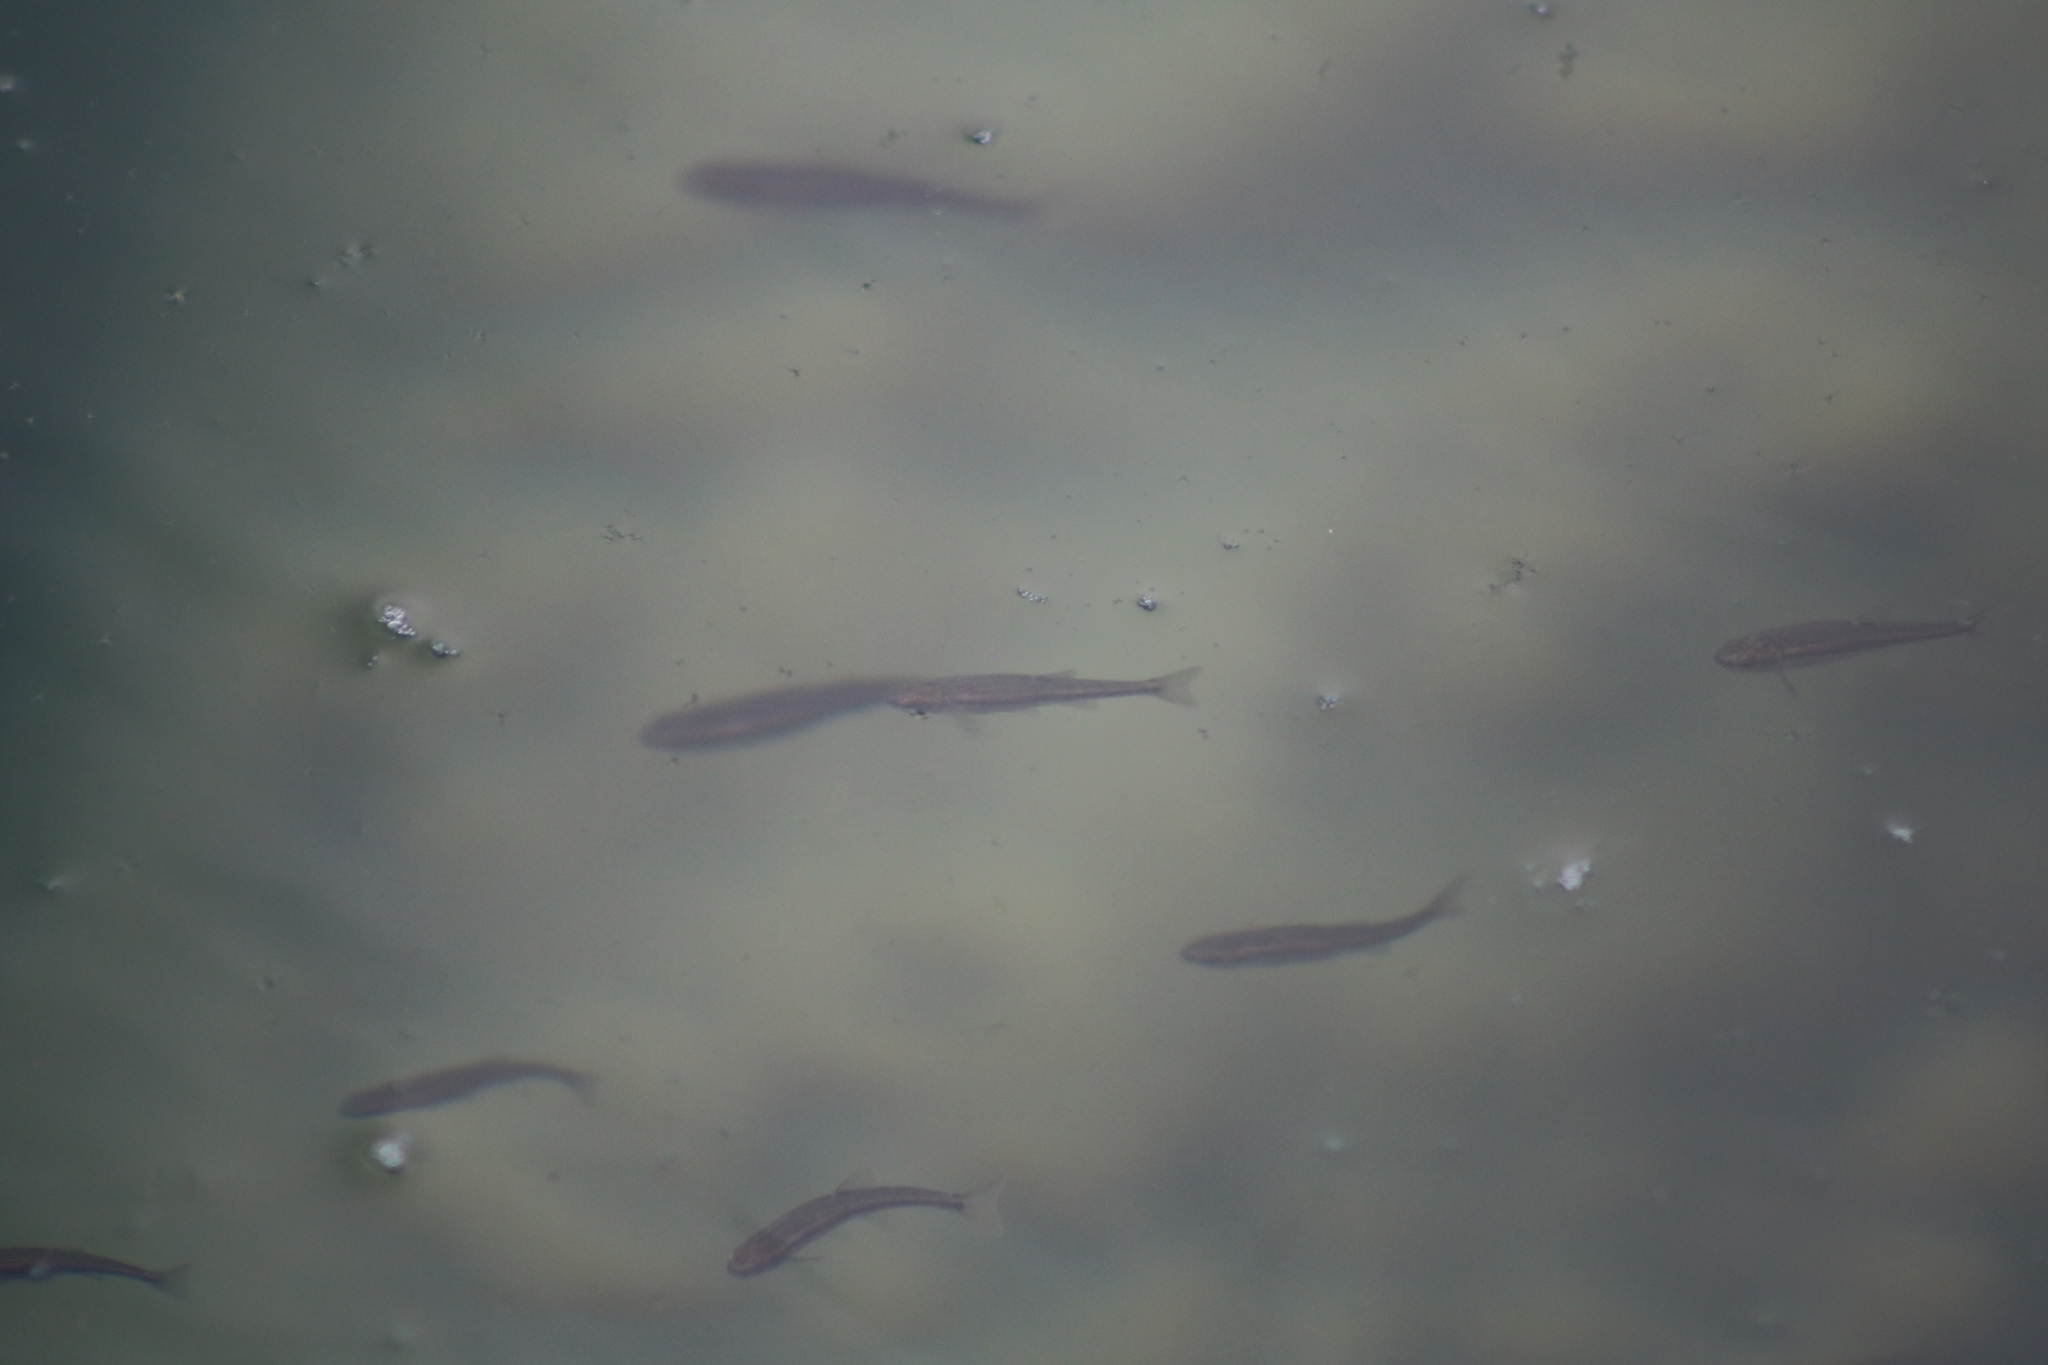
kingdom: Animalia
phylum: Chordata
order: Cypriniformes
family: Cyprinidae
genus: Phoxinus
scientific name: Phoxinus phoxinus
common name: Minnow
